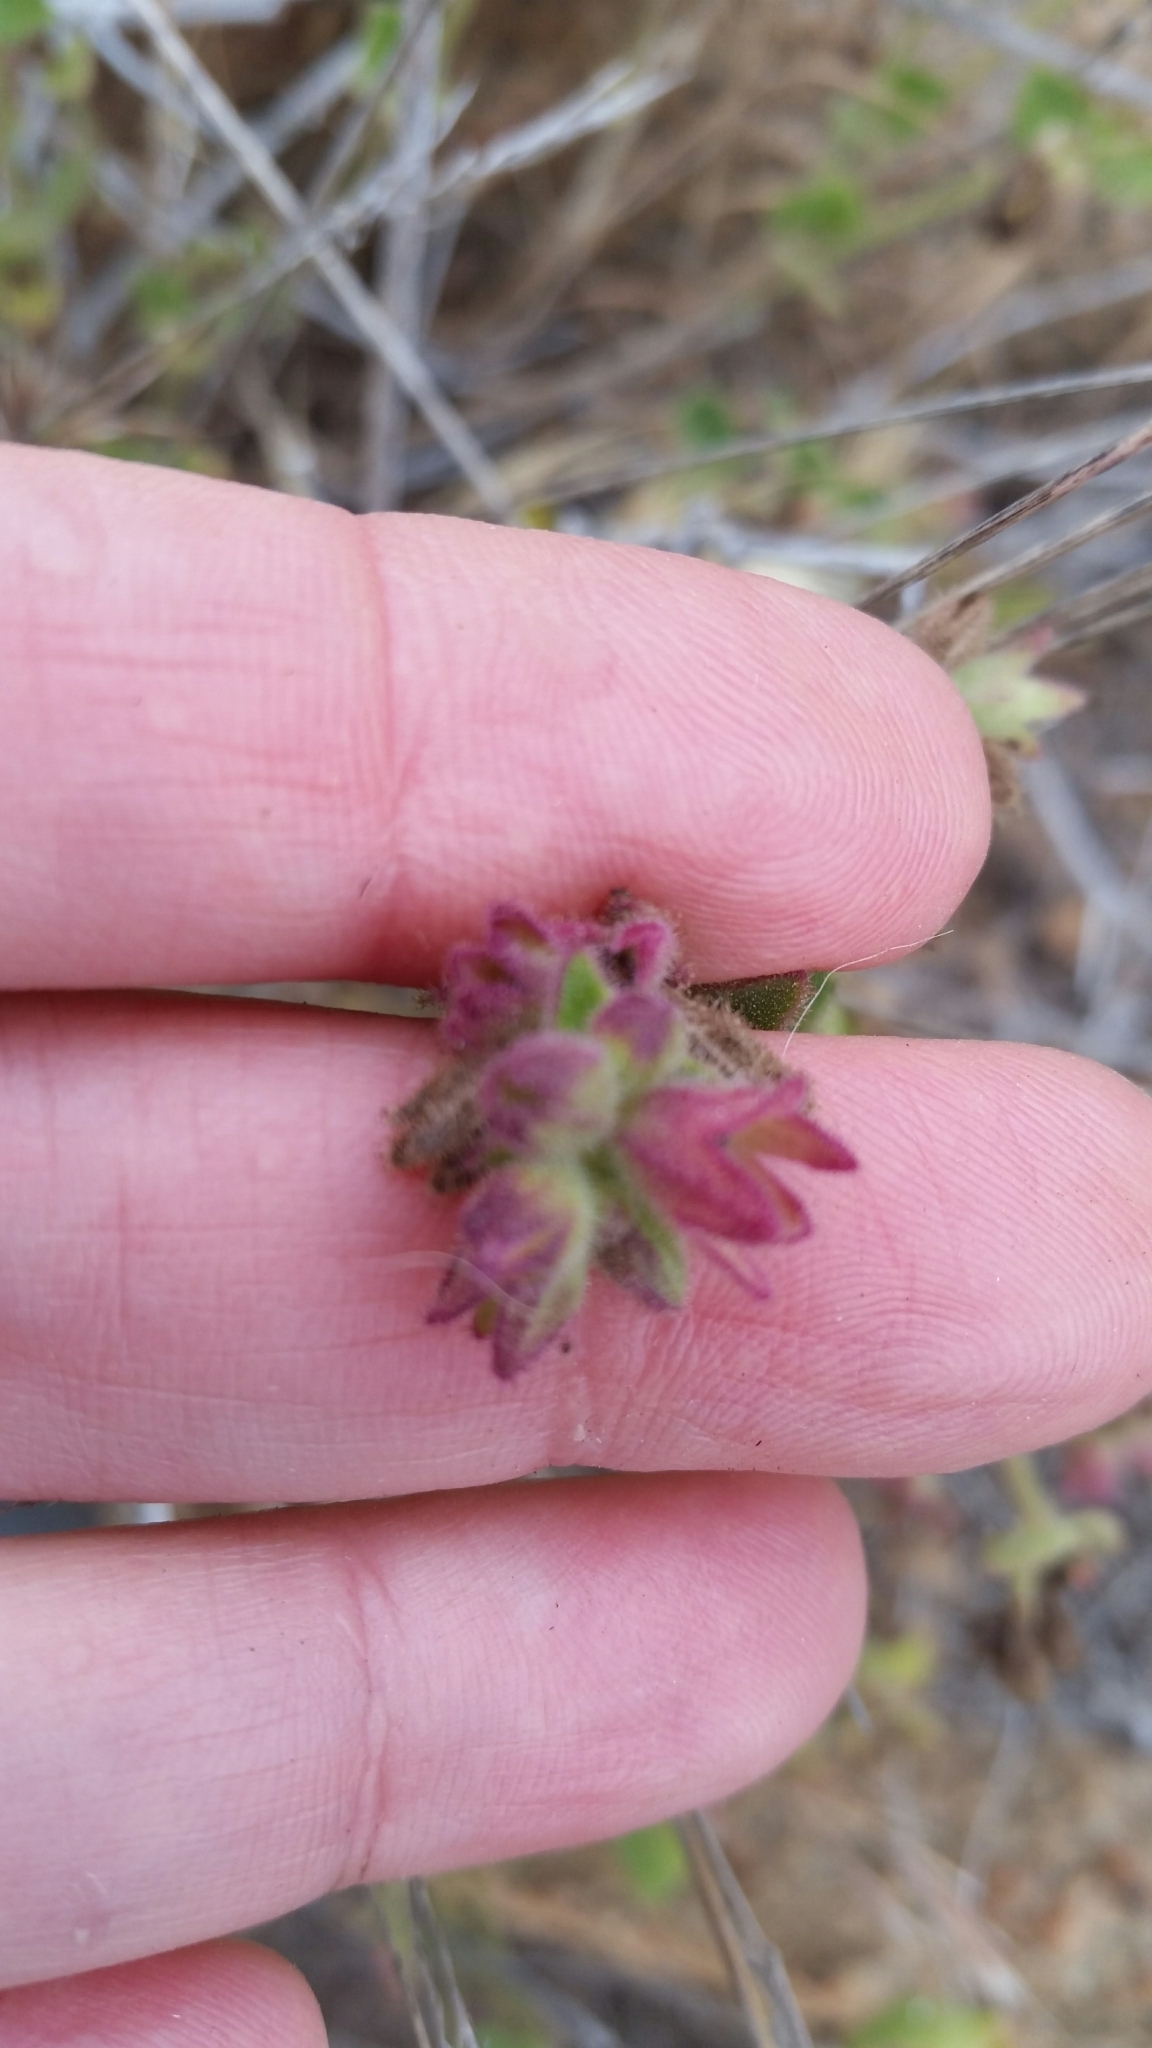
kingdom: Plantae
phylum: Tracheophyta
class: Magnoliopsida
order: Caryophyllales
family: Nyctaginaceae
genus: Mirabilis
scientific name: Mirabilis laevis
